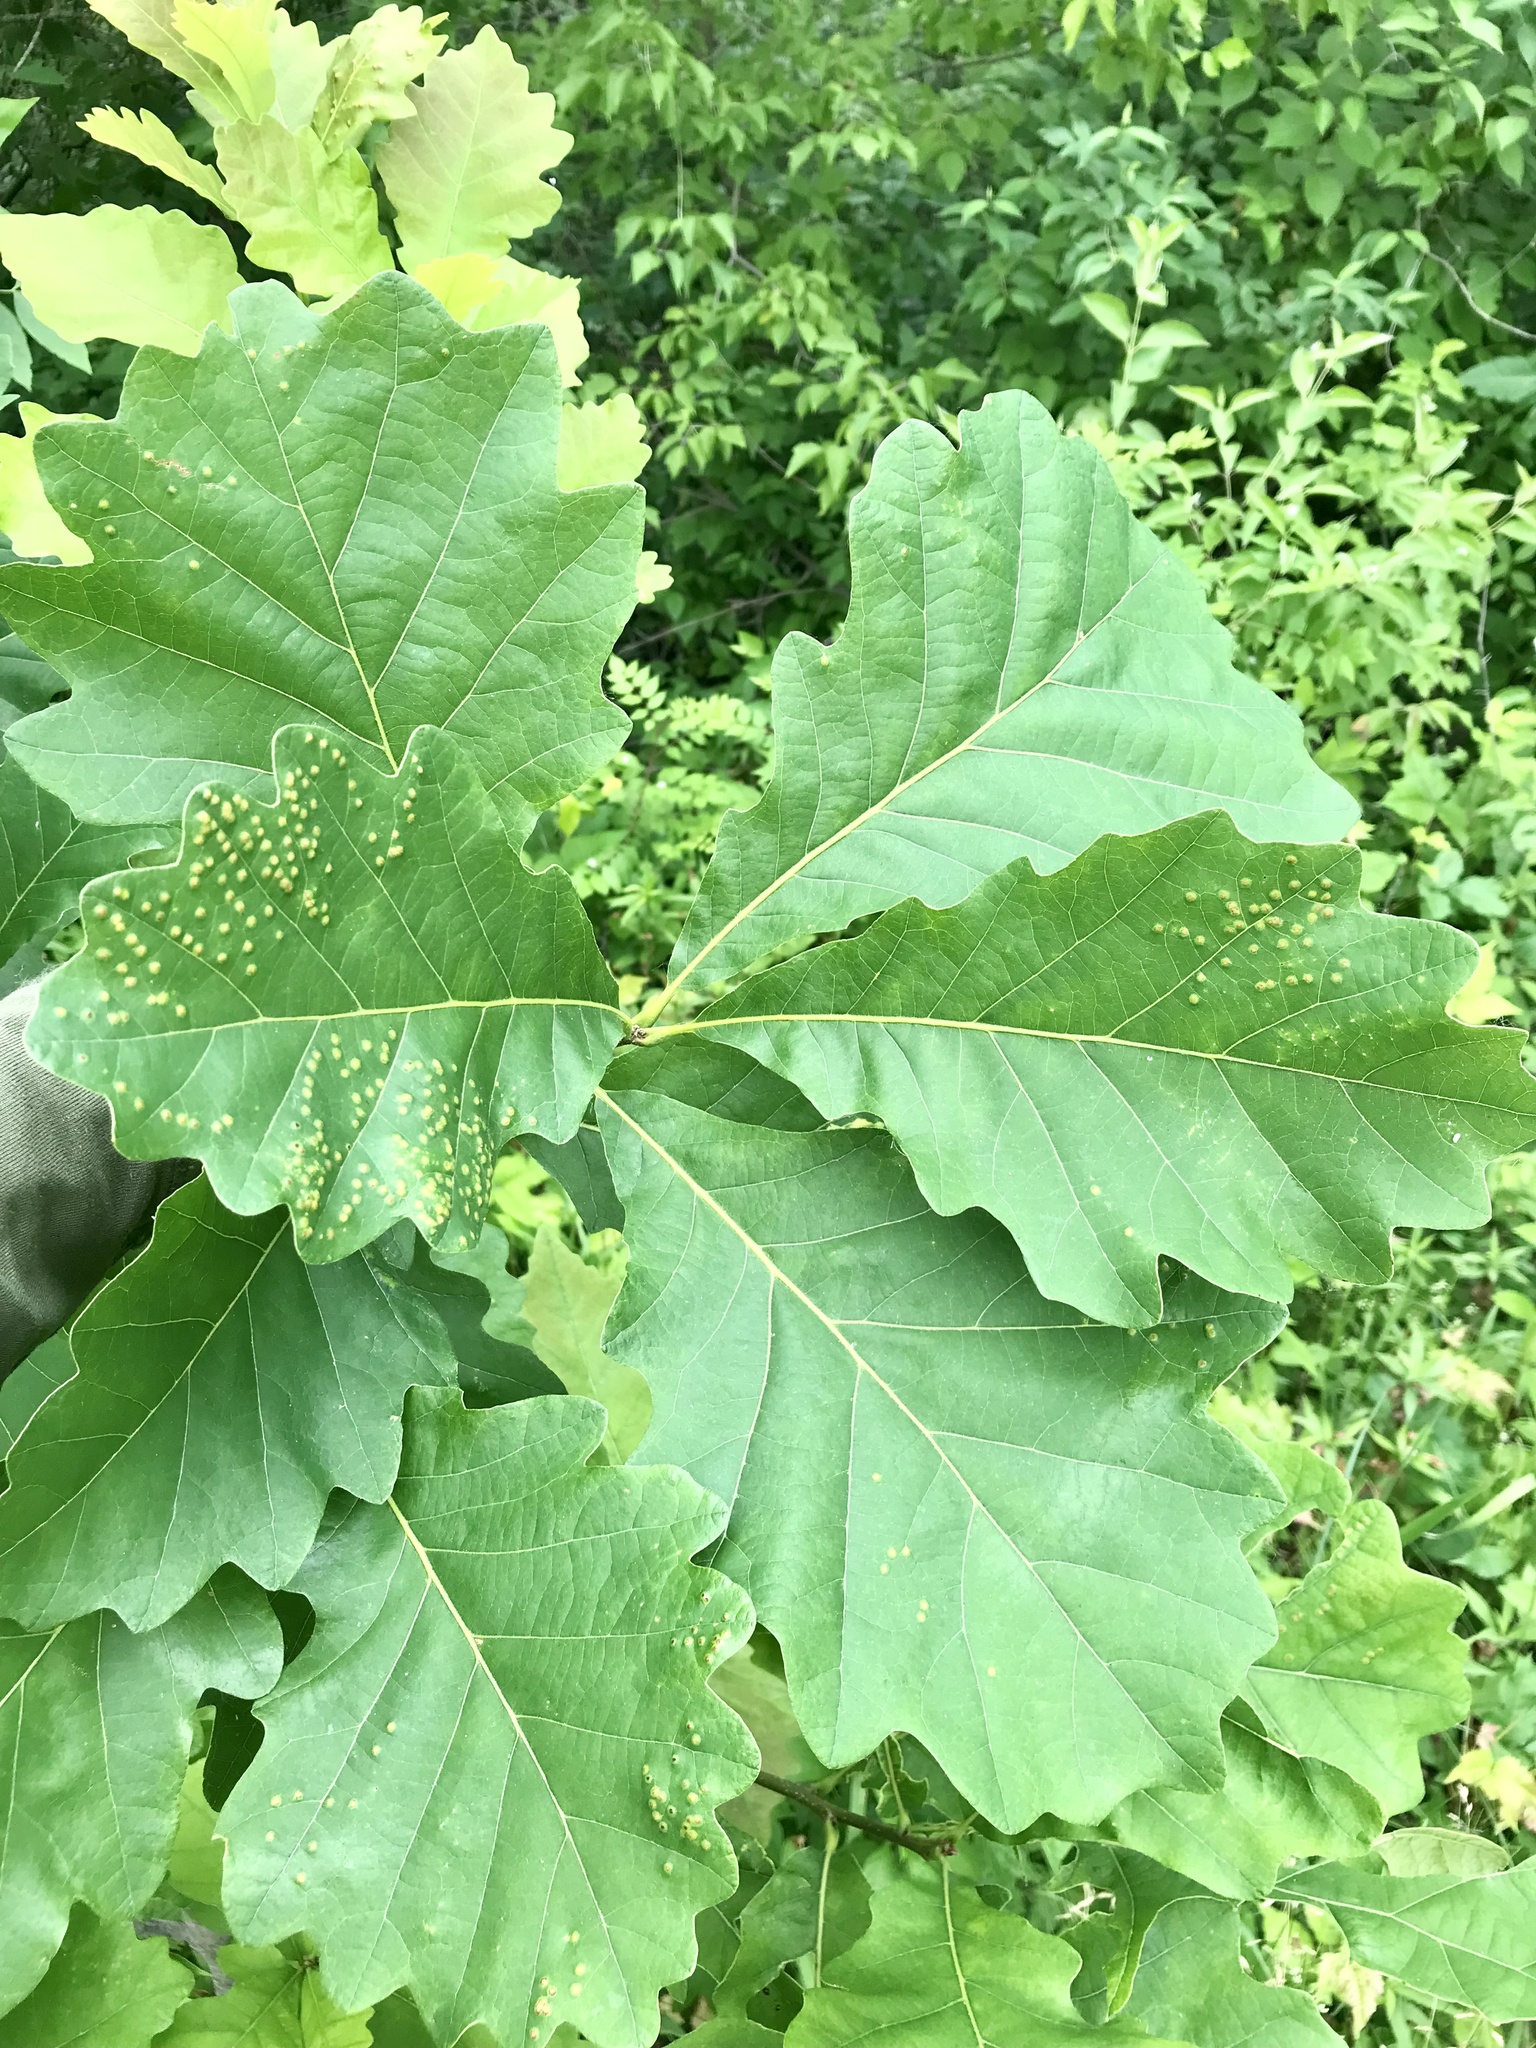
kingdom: Plantae
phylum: Tracheophyta
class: Magnoliopsida
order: Fagales
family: Fagaceae
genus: Quercus
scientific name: Quercus bicolor
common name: Swamp white oak
